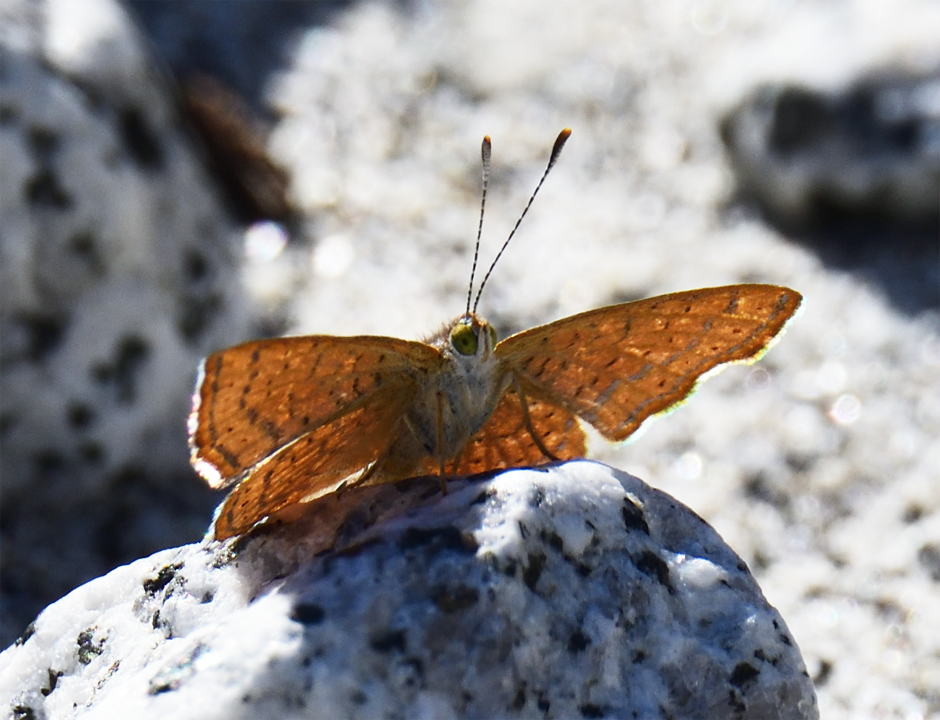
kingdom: Animalia
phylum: Arthropoda
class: Insecta
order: Lepidoptera
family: Lycaenidae
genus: Emesis
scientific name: Emesis wrighti
